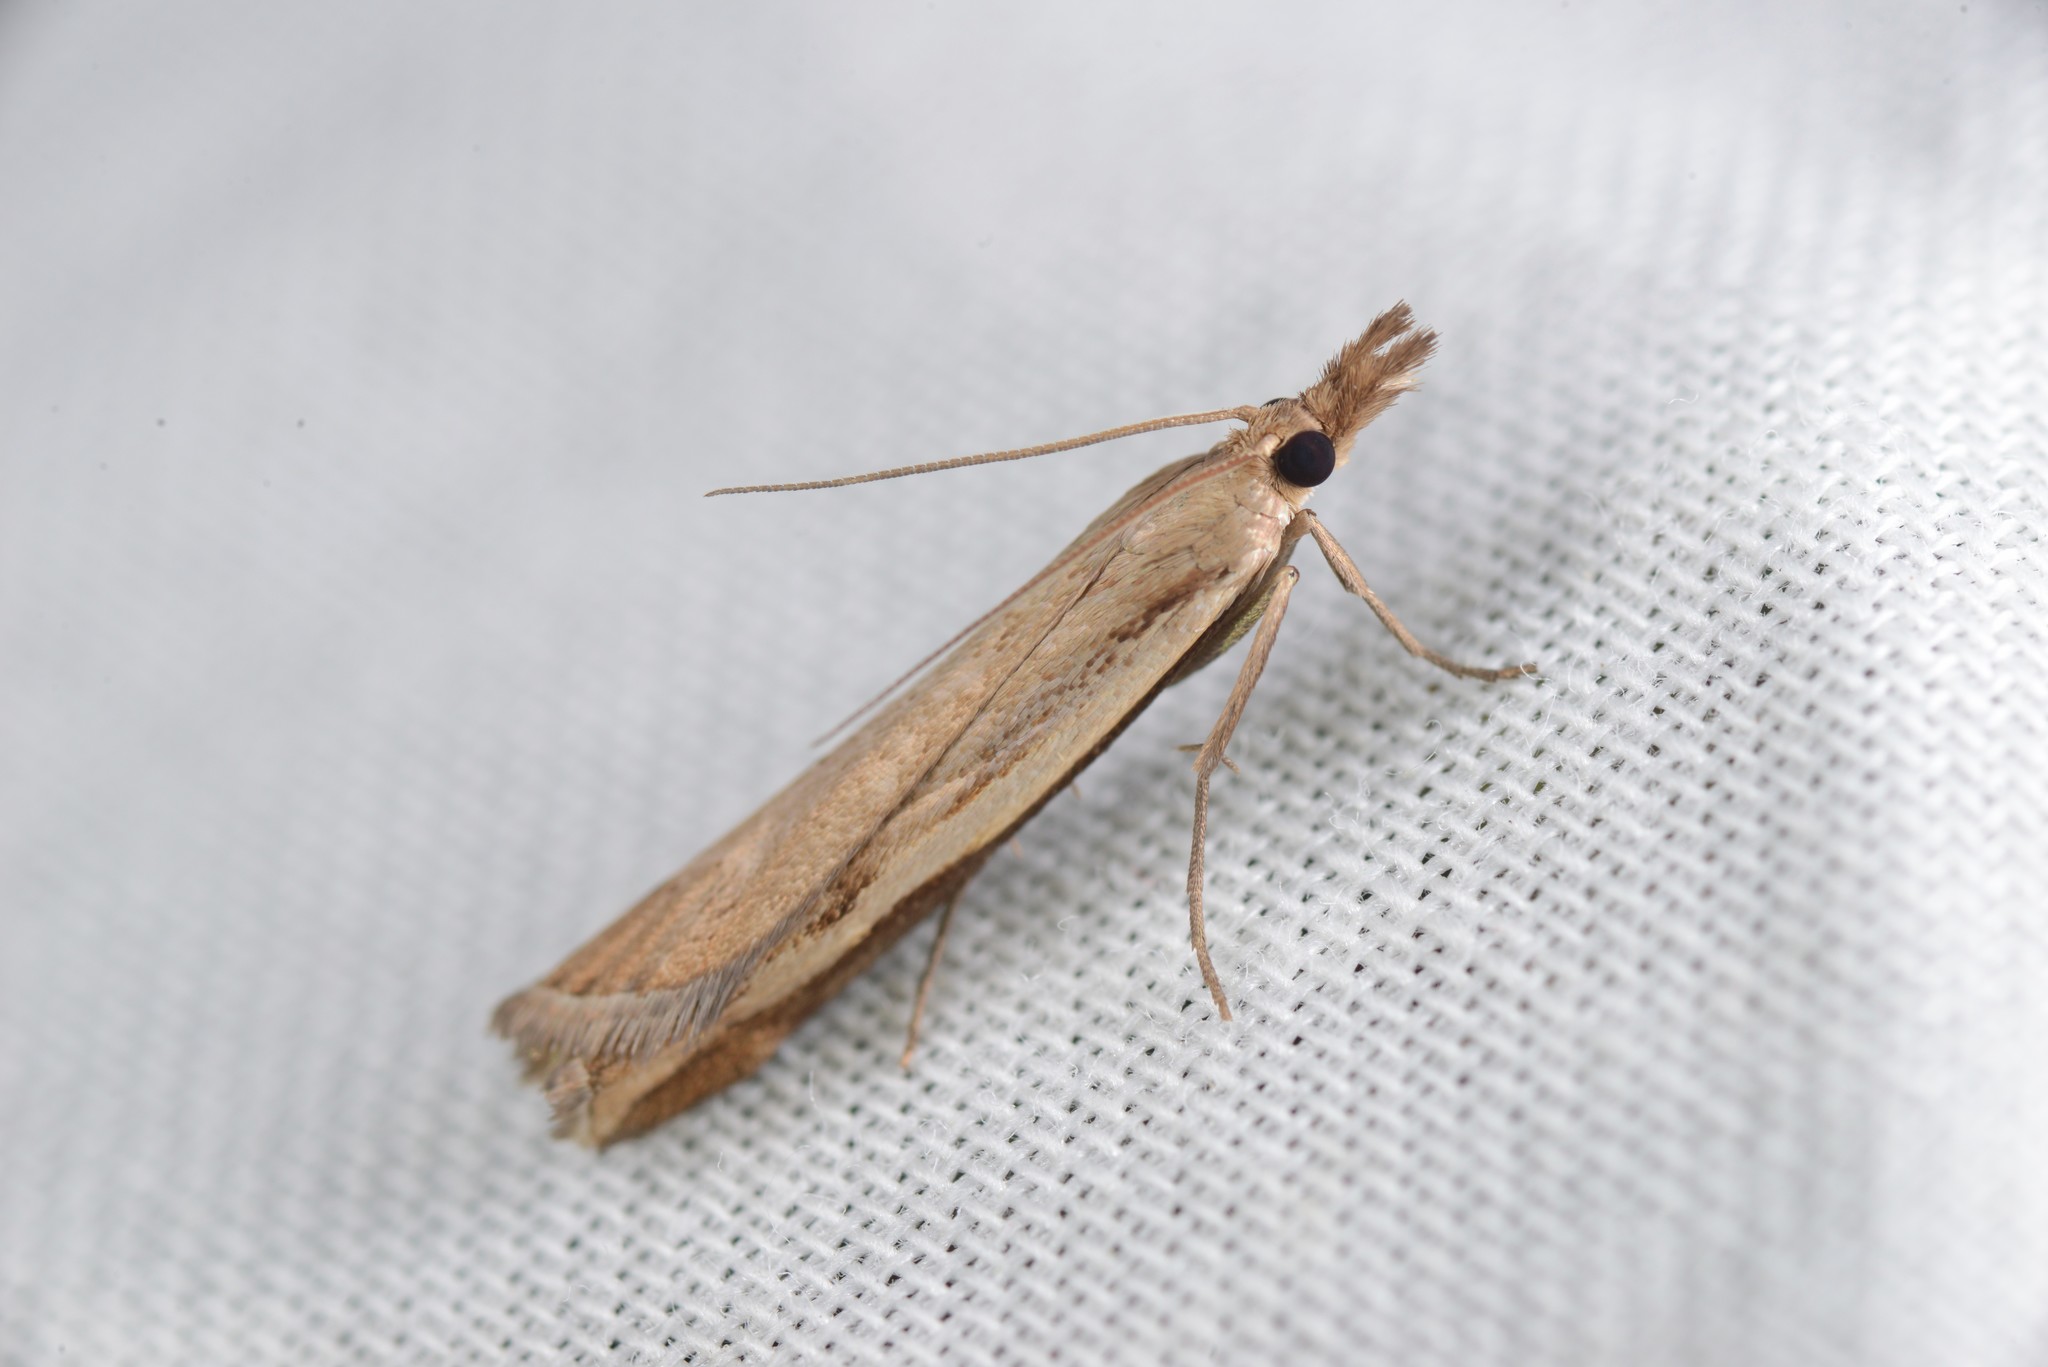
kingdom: Animalia
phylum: Arthropoda
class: Insecta
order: Lepidoptera
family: Crambidae
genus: Orocrambus
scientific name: Orocrambus flexuosellus
